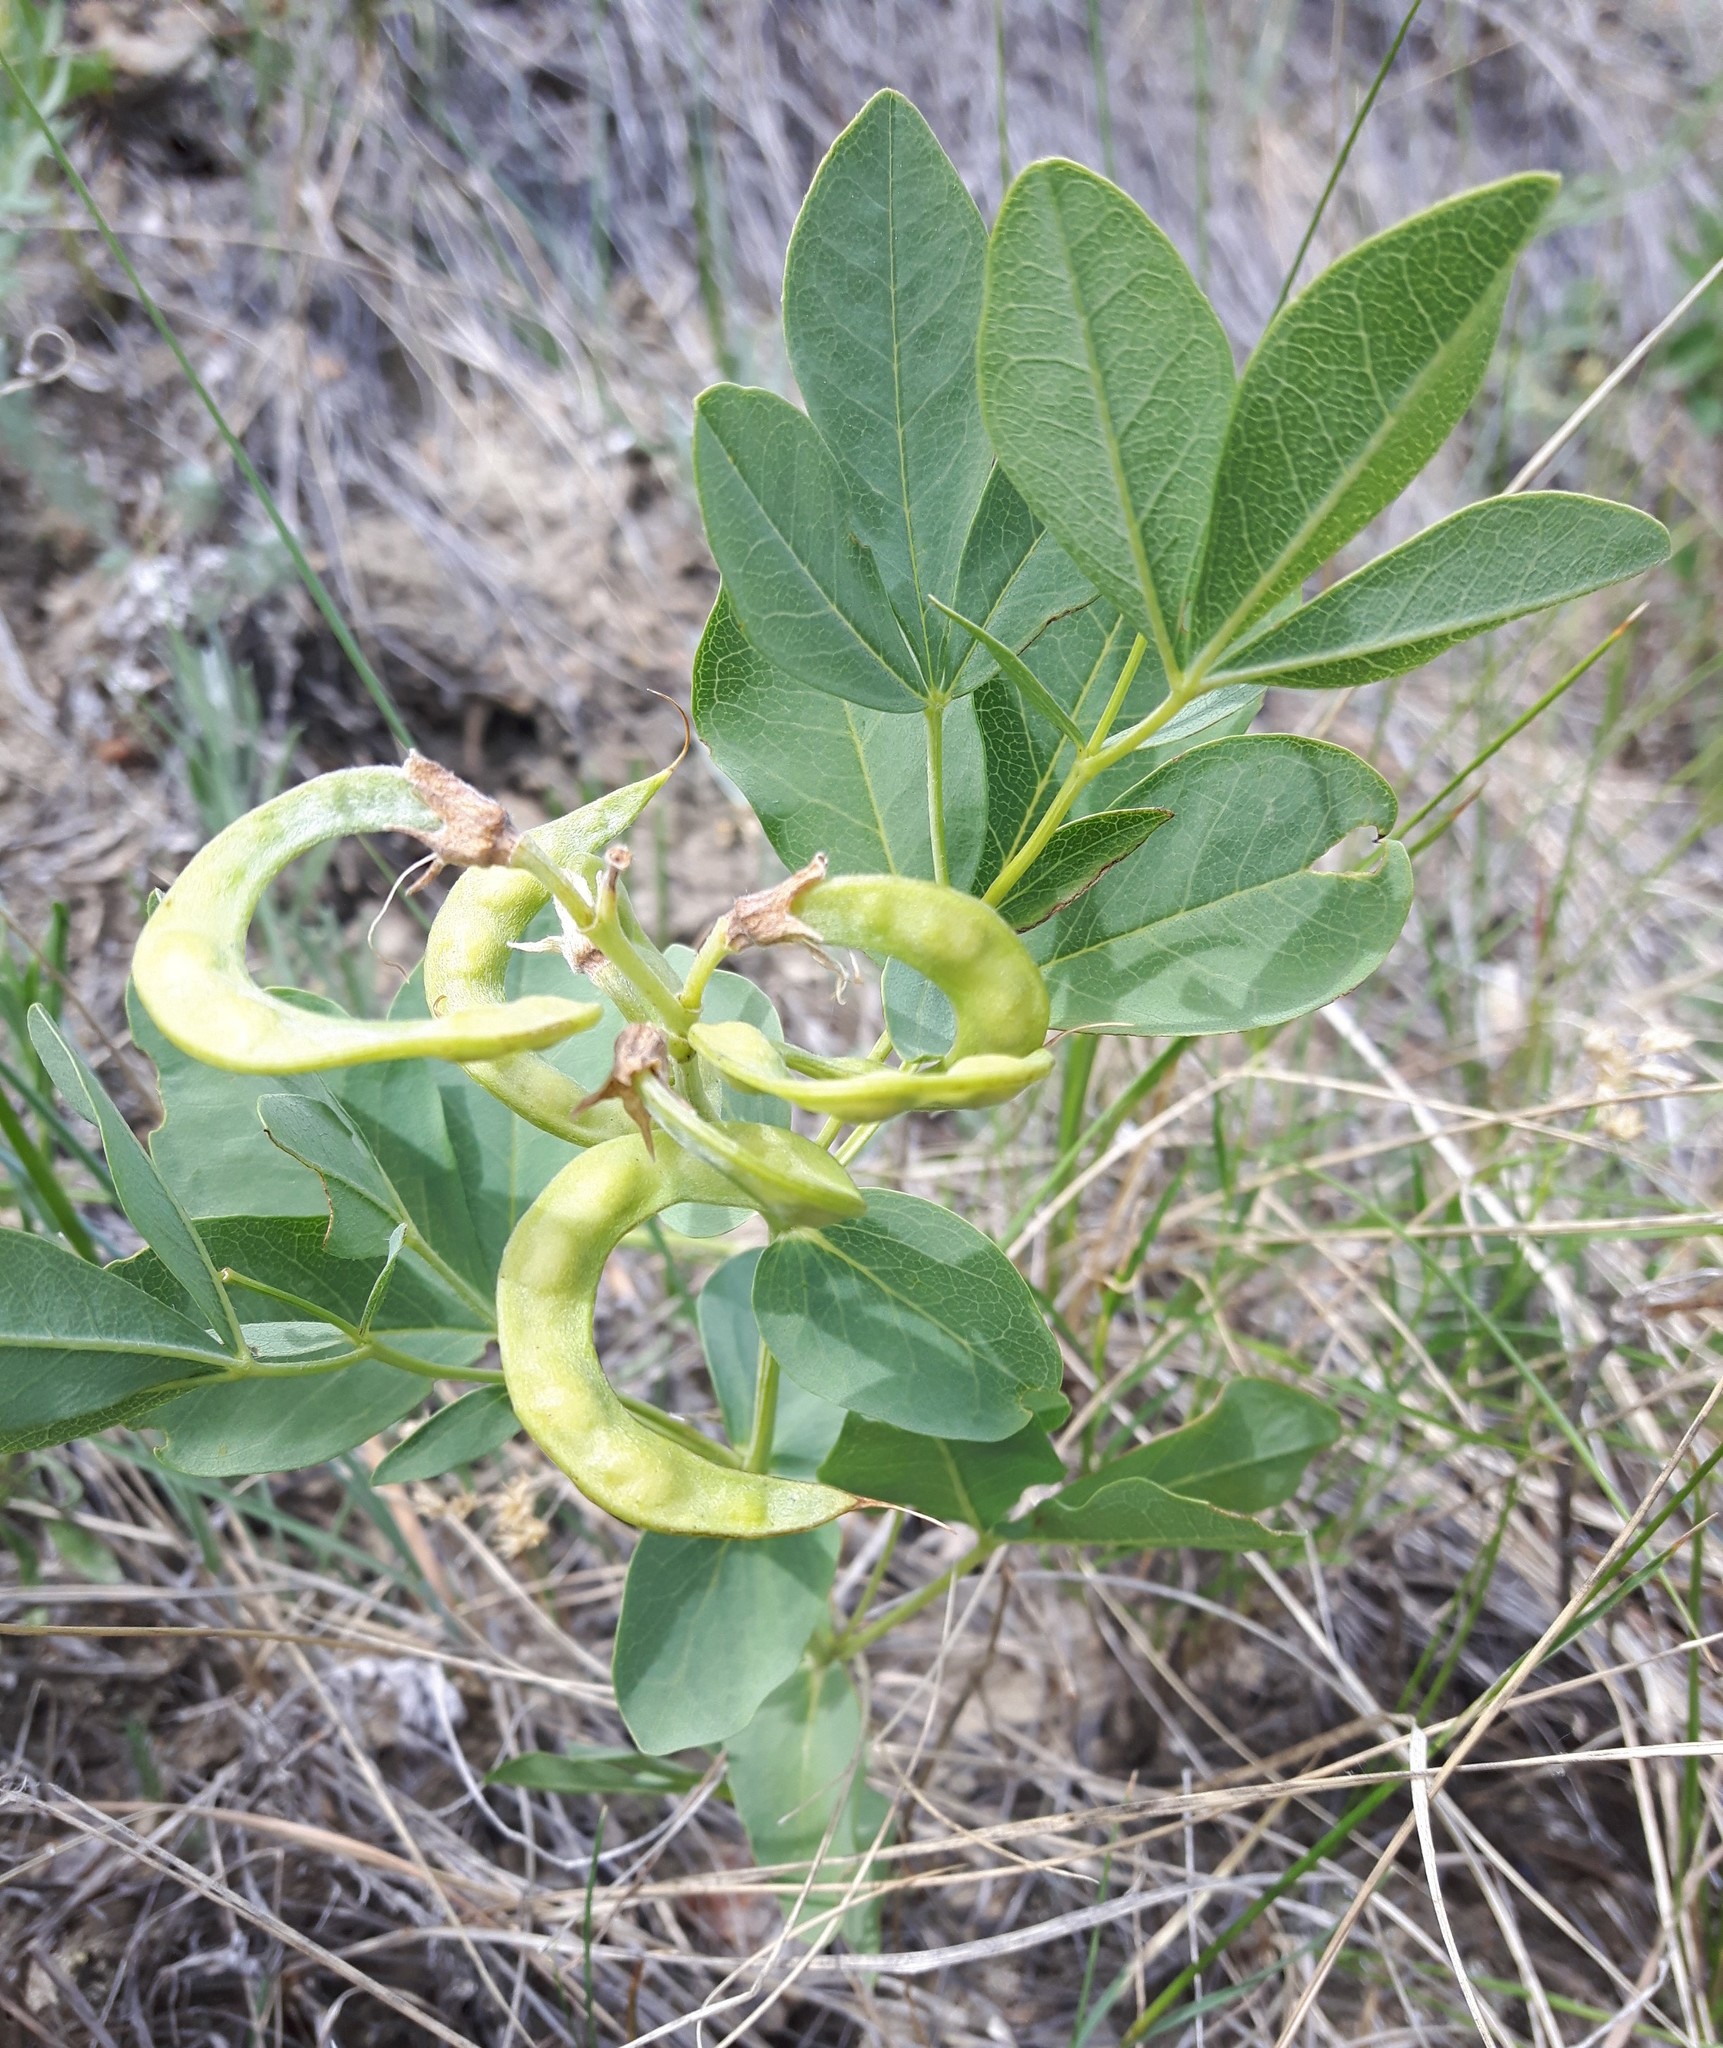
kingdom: Plantae
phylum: Tracheophyta
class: Magnoliopsida
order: Fabales
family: Fabaceae
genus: Thermopsis
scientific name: Thermopsis rhombifolia
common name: Circle-pod-pea
